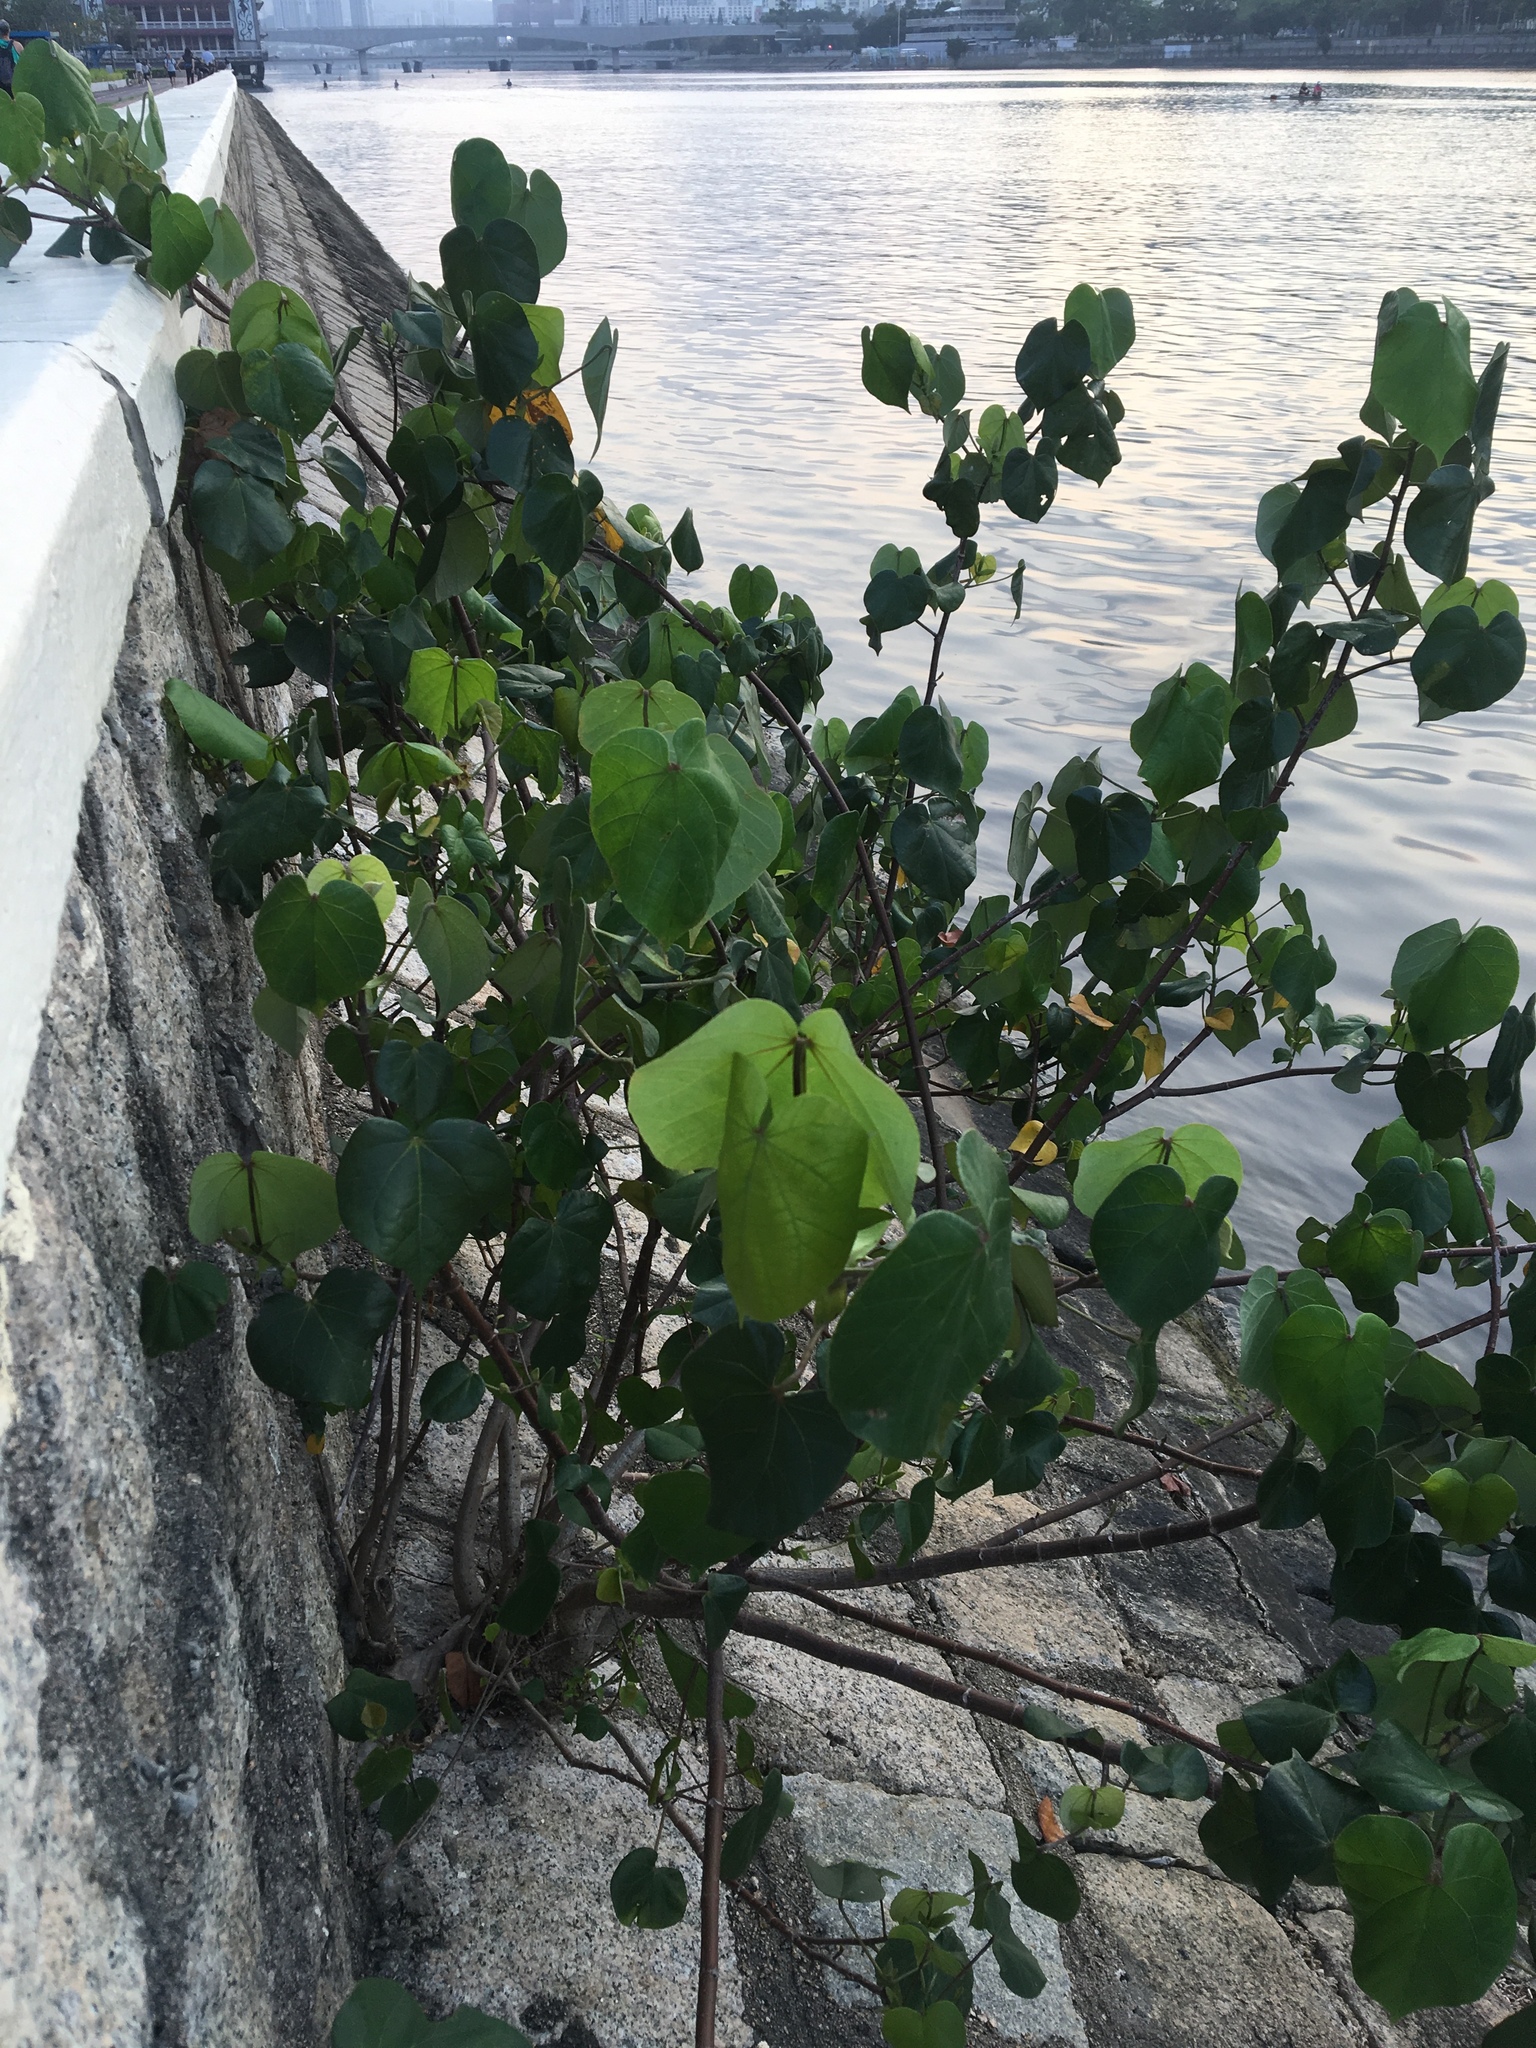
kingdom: Plantae
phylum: Tracheophyta
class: Magnoliopsida
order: Malvales
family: Malvaceae
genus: Talipariti
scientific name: Talipariti tiliaceum
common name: Sea hibiscus
